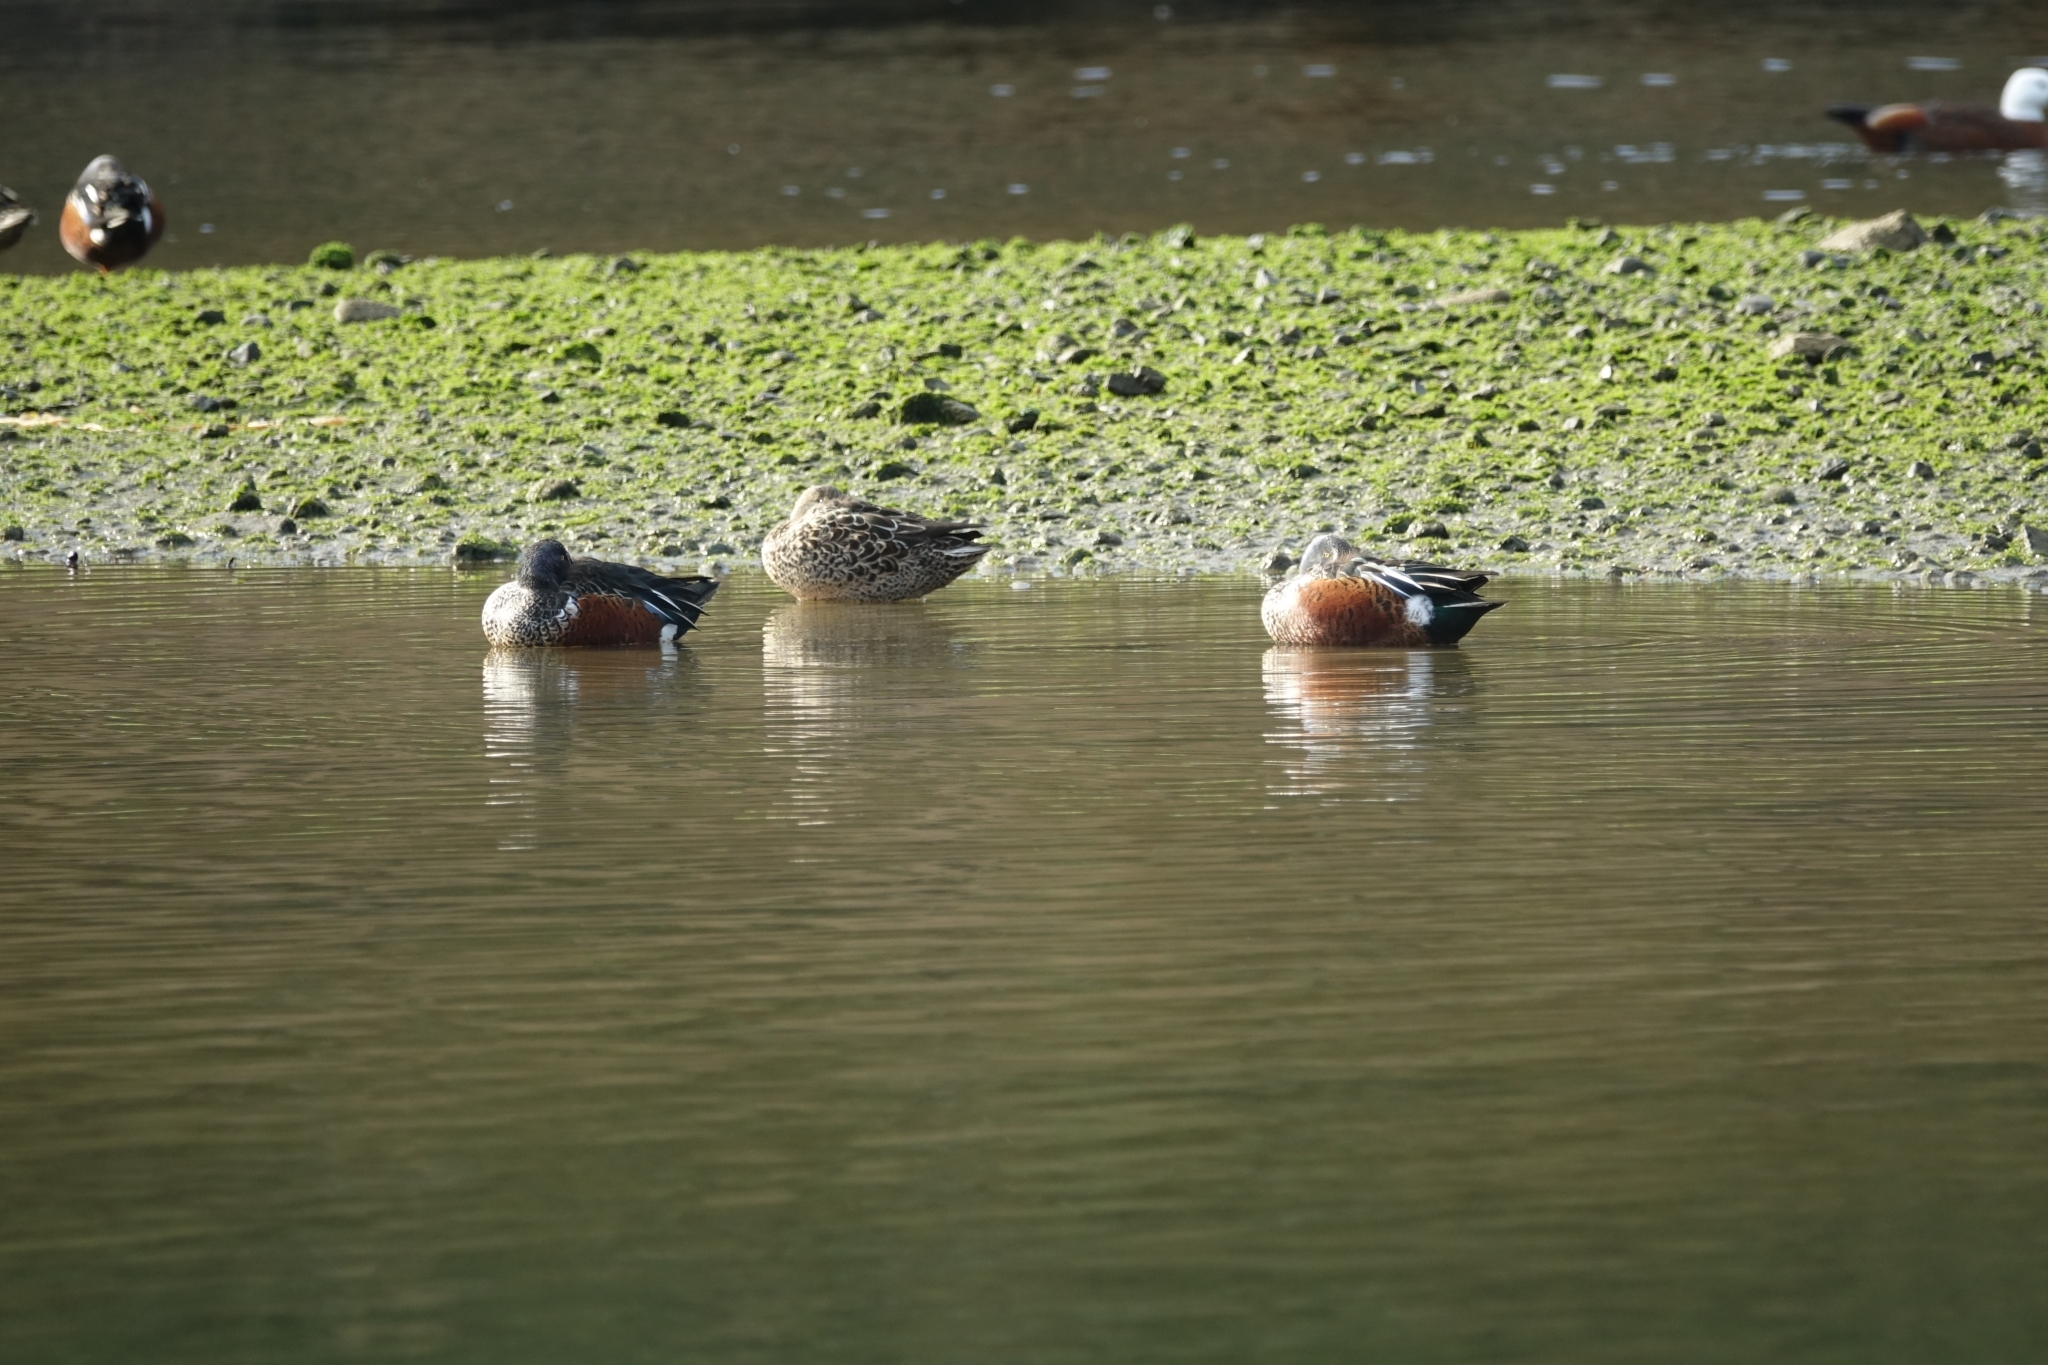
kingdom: Animalia
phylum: Chordata
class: Aves
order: Anseriformes
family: Anatidae
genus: Spatula
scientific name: Spatula rhynchotis
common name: Australian shoveler
